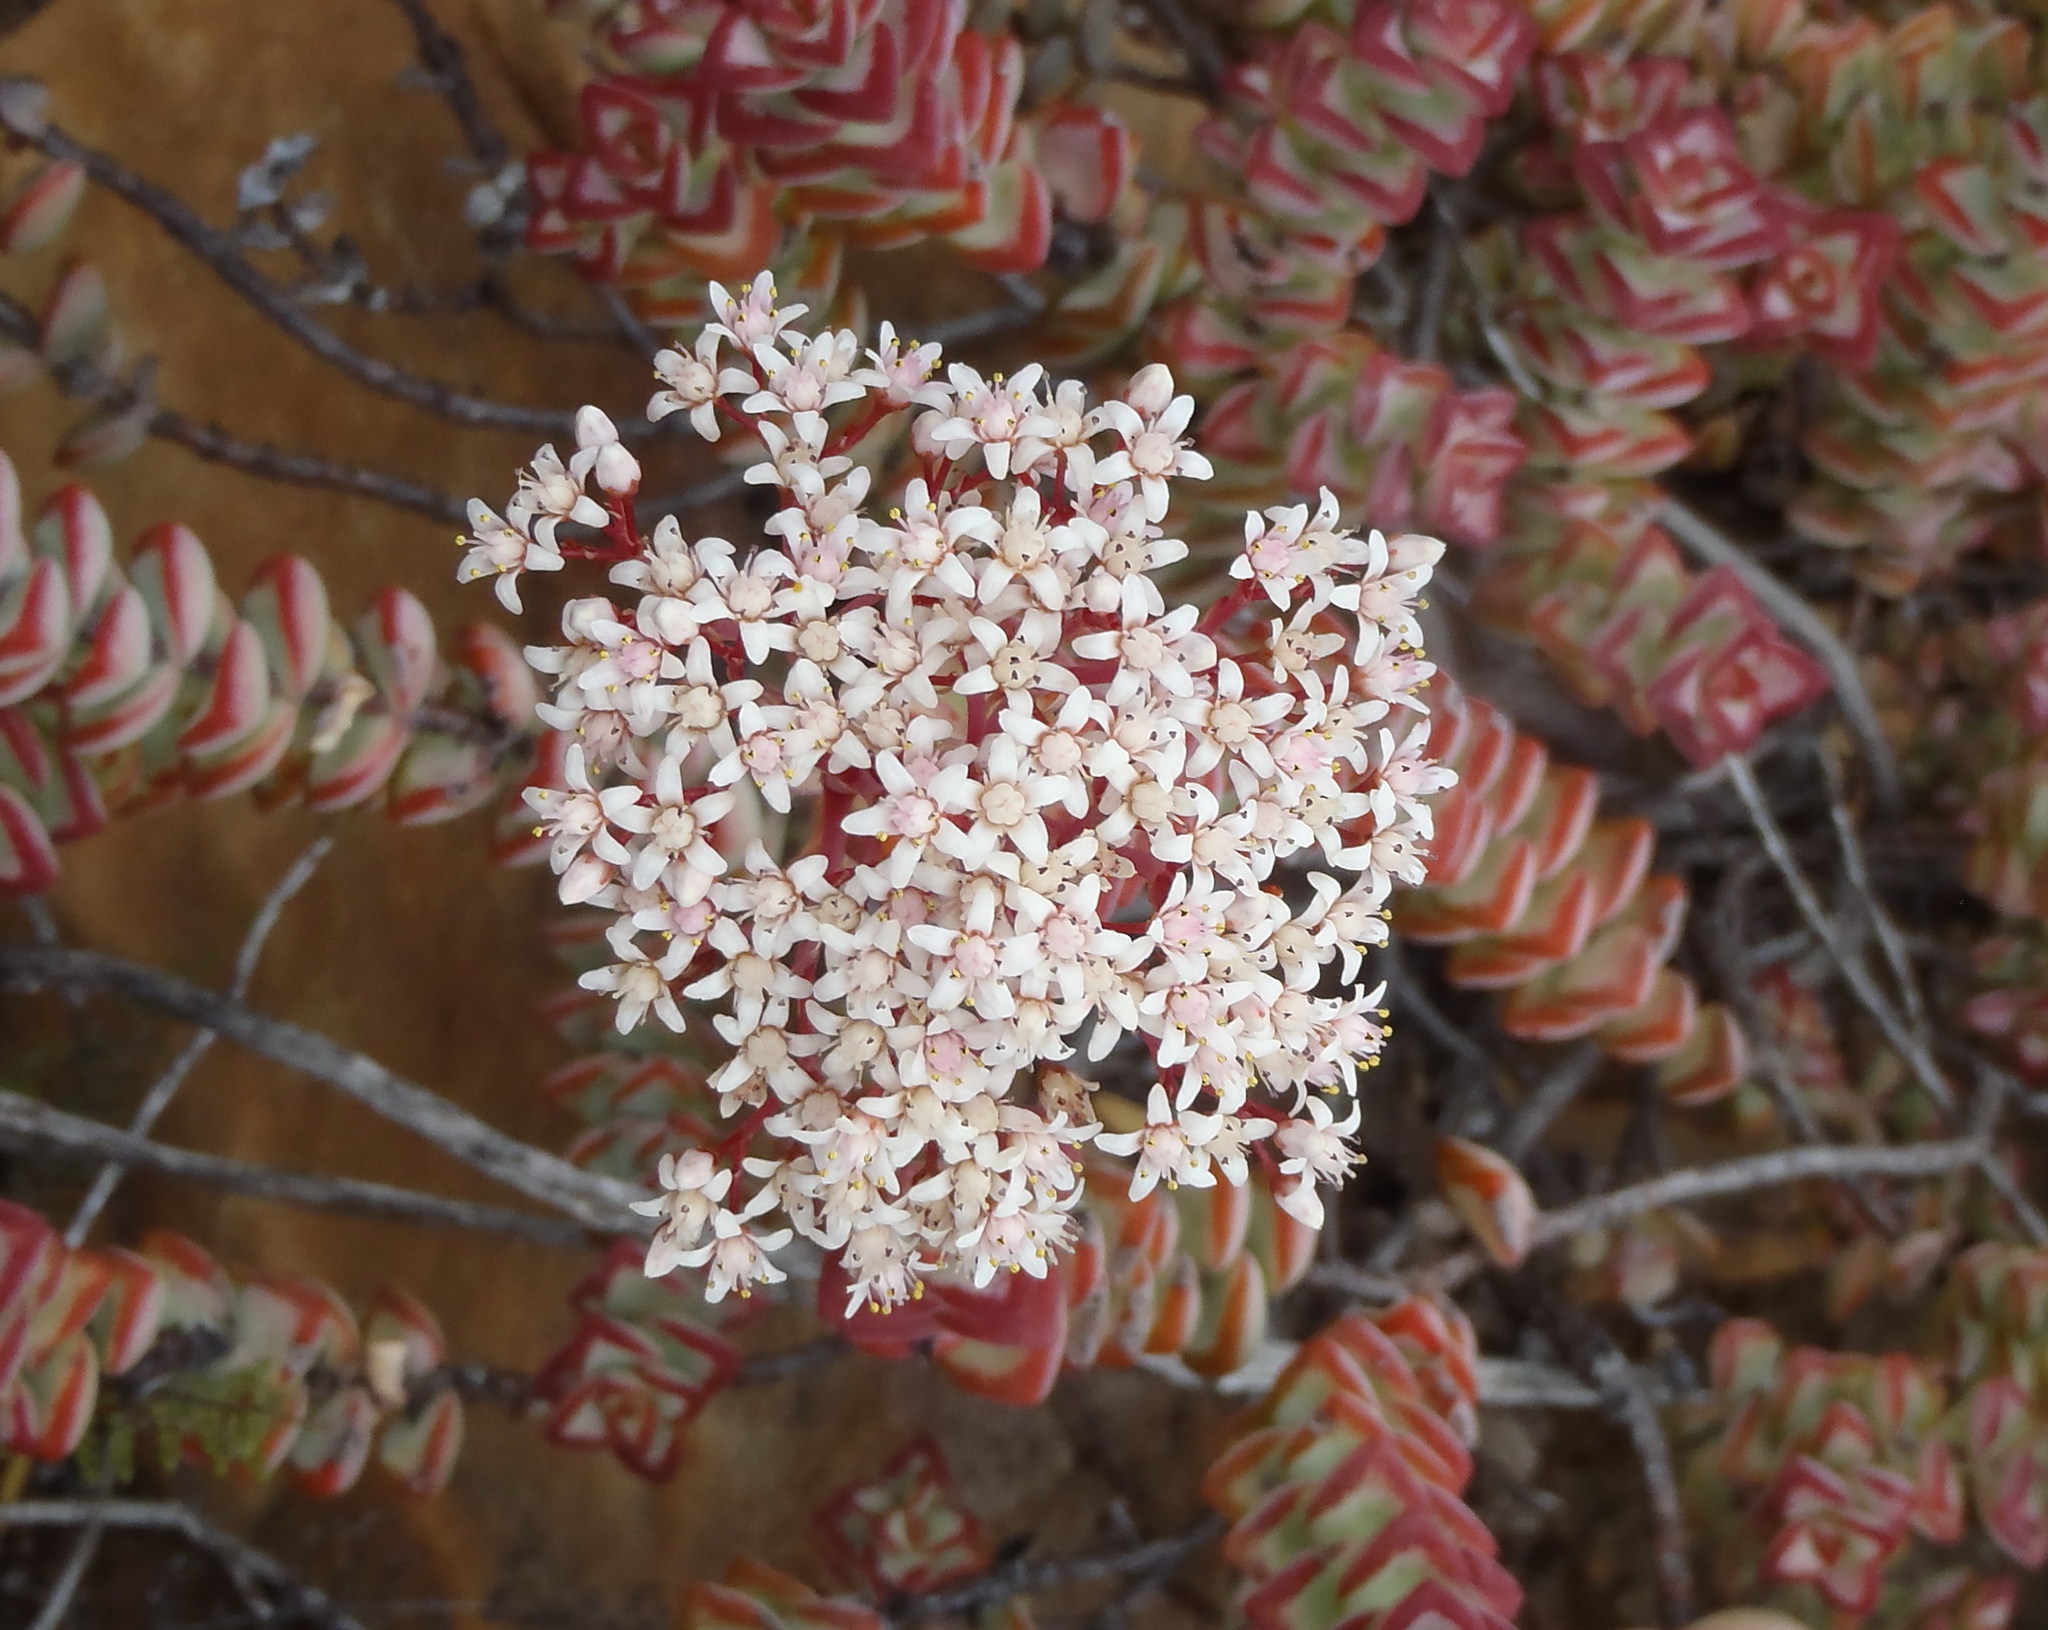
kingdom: Plantae
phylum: Tracheophyta
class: Magnoliopsida
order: Saxifragales
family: Crassulaceae
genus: Crassula
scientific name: Crassula rupestris
